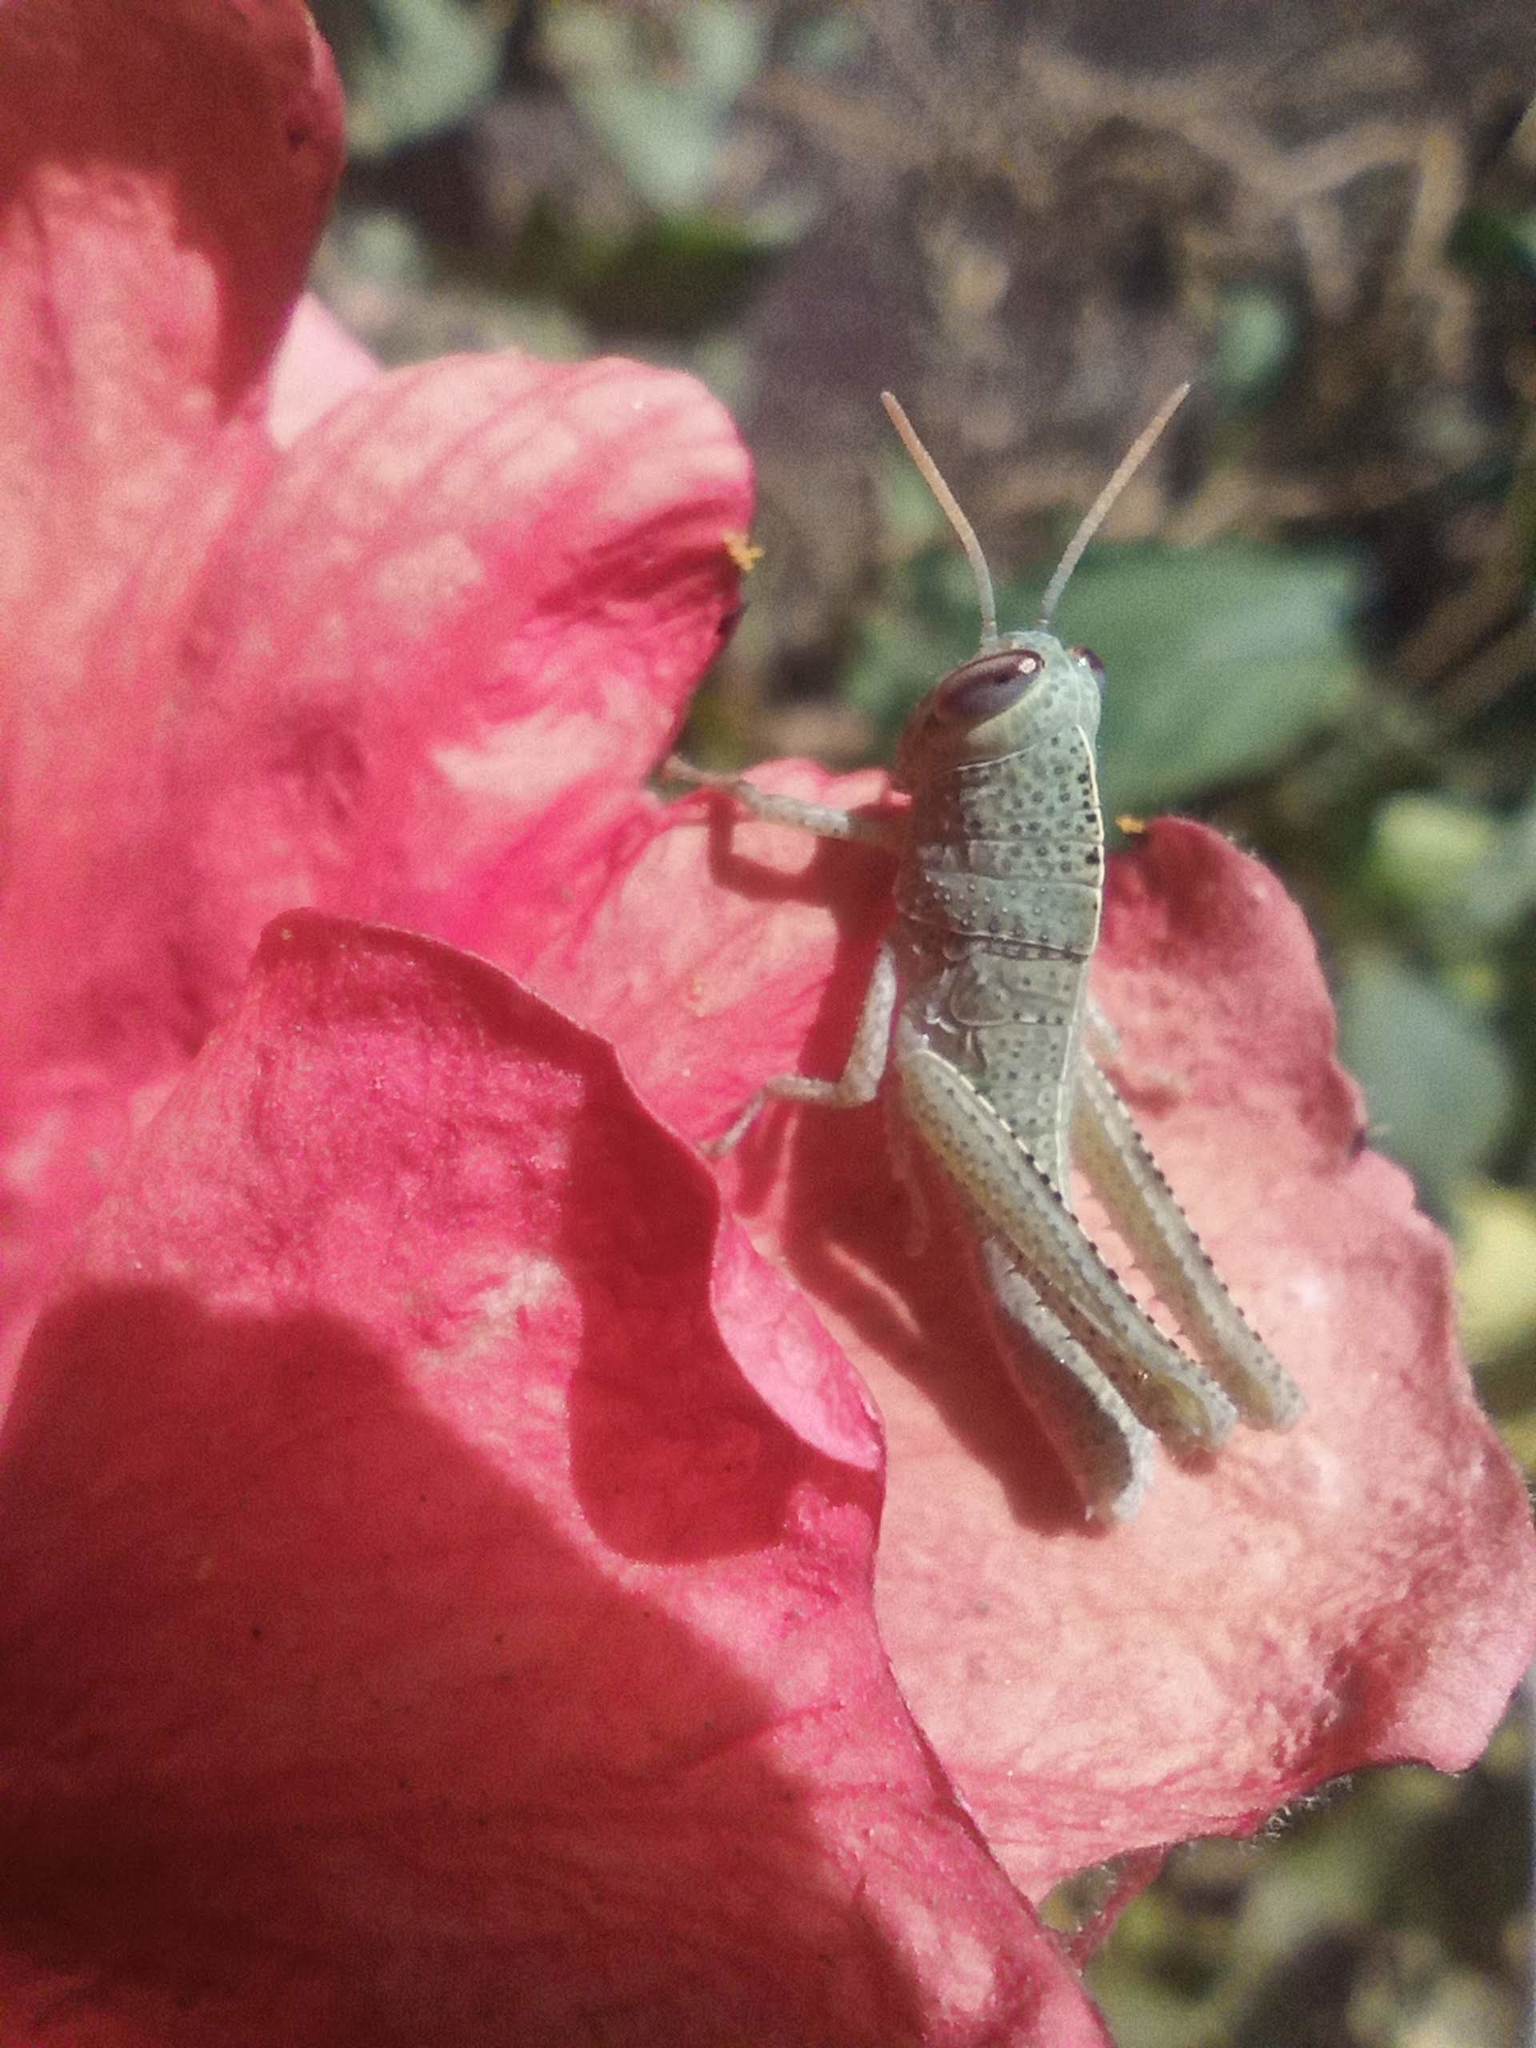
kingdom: Animalia
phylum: Arthropoda
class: Insecta
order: Orthoptera
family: Acrididae
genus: Anacridium
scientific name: Anacridium aegyptium
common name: Egyptian grasshopper
